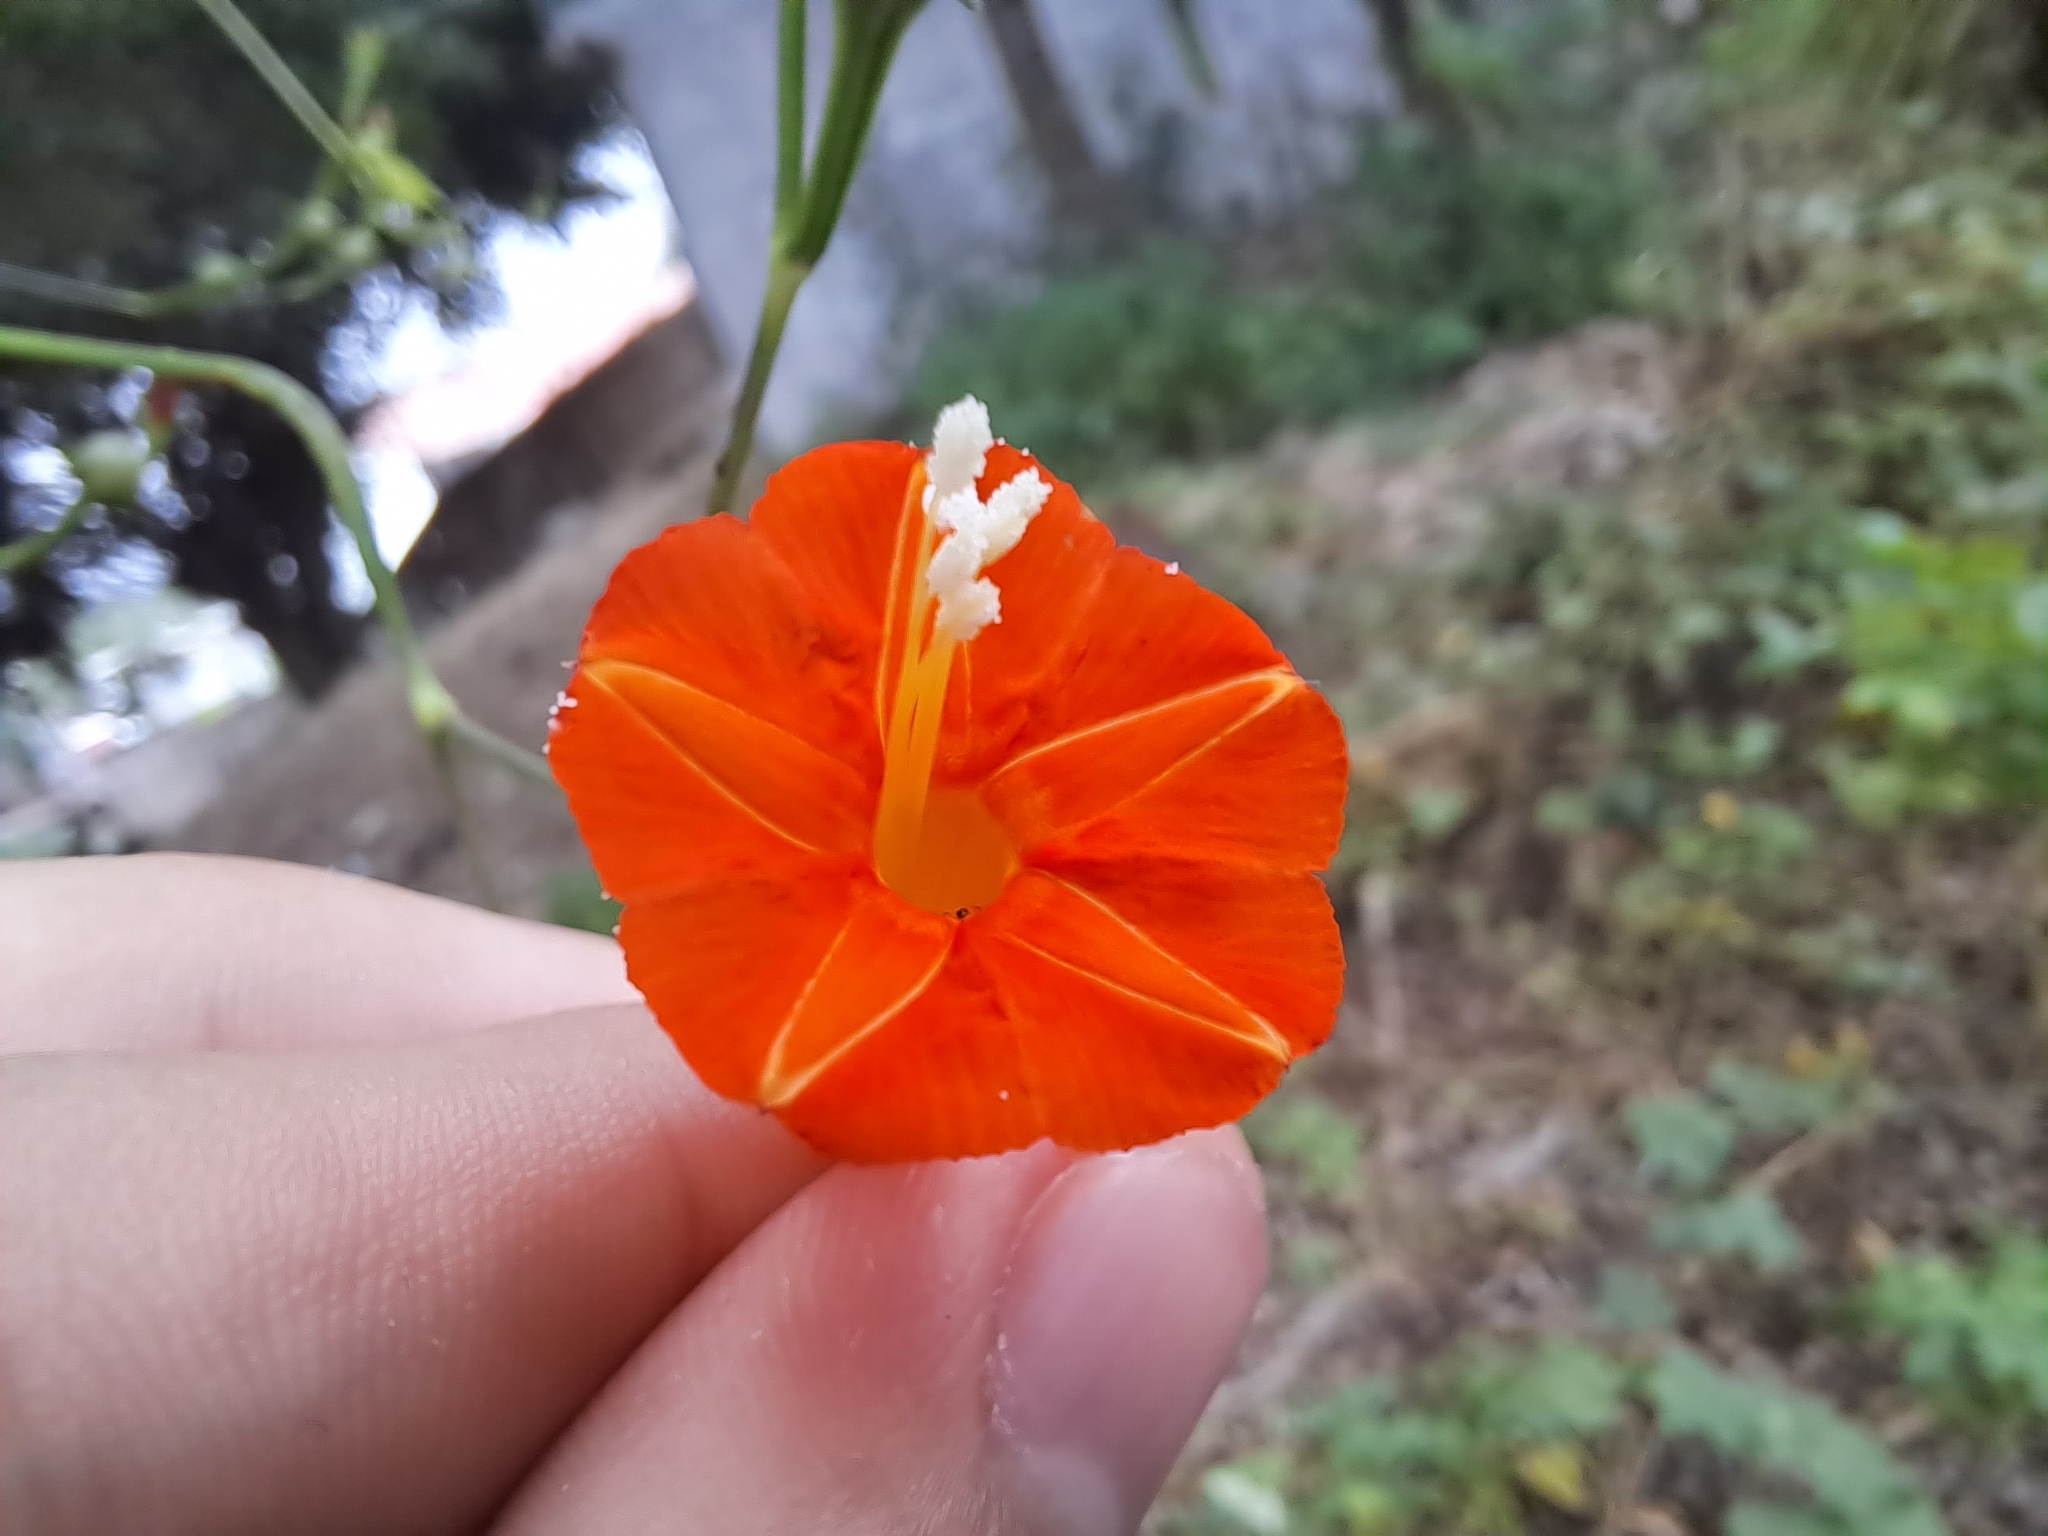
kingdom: Plantae
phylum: Tracheophyta
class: Magnoliopsida
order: Solanales
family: Convolvulaceae
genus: Ipomoea
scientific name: Ipomoea hederifolia
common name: Ivy-leaf morning-glory
